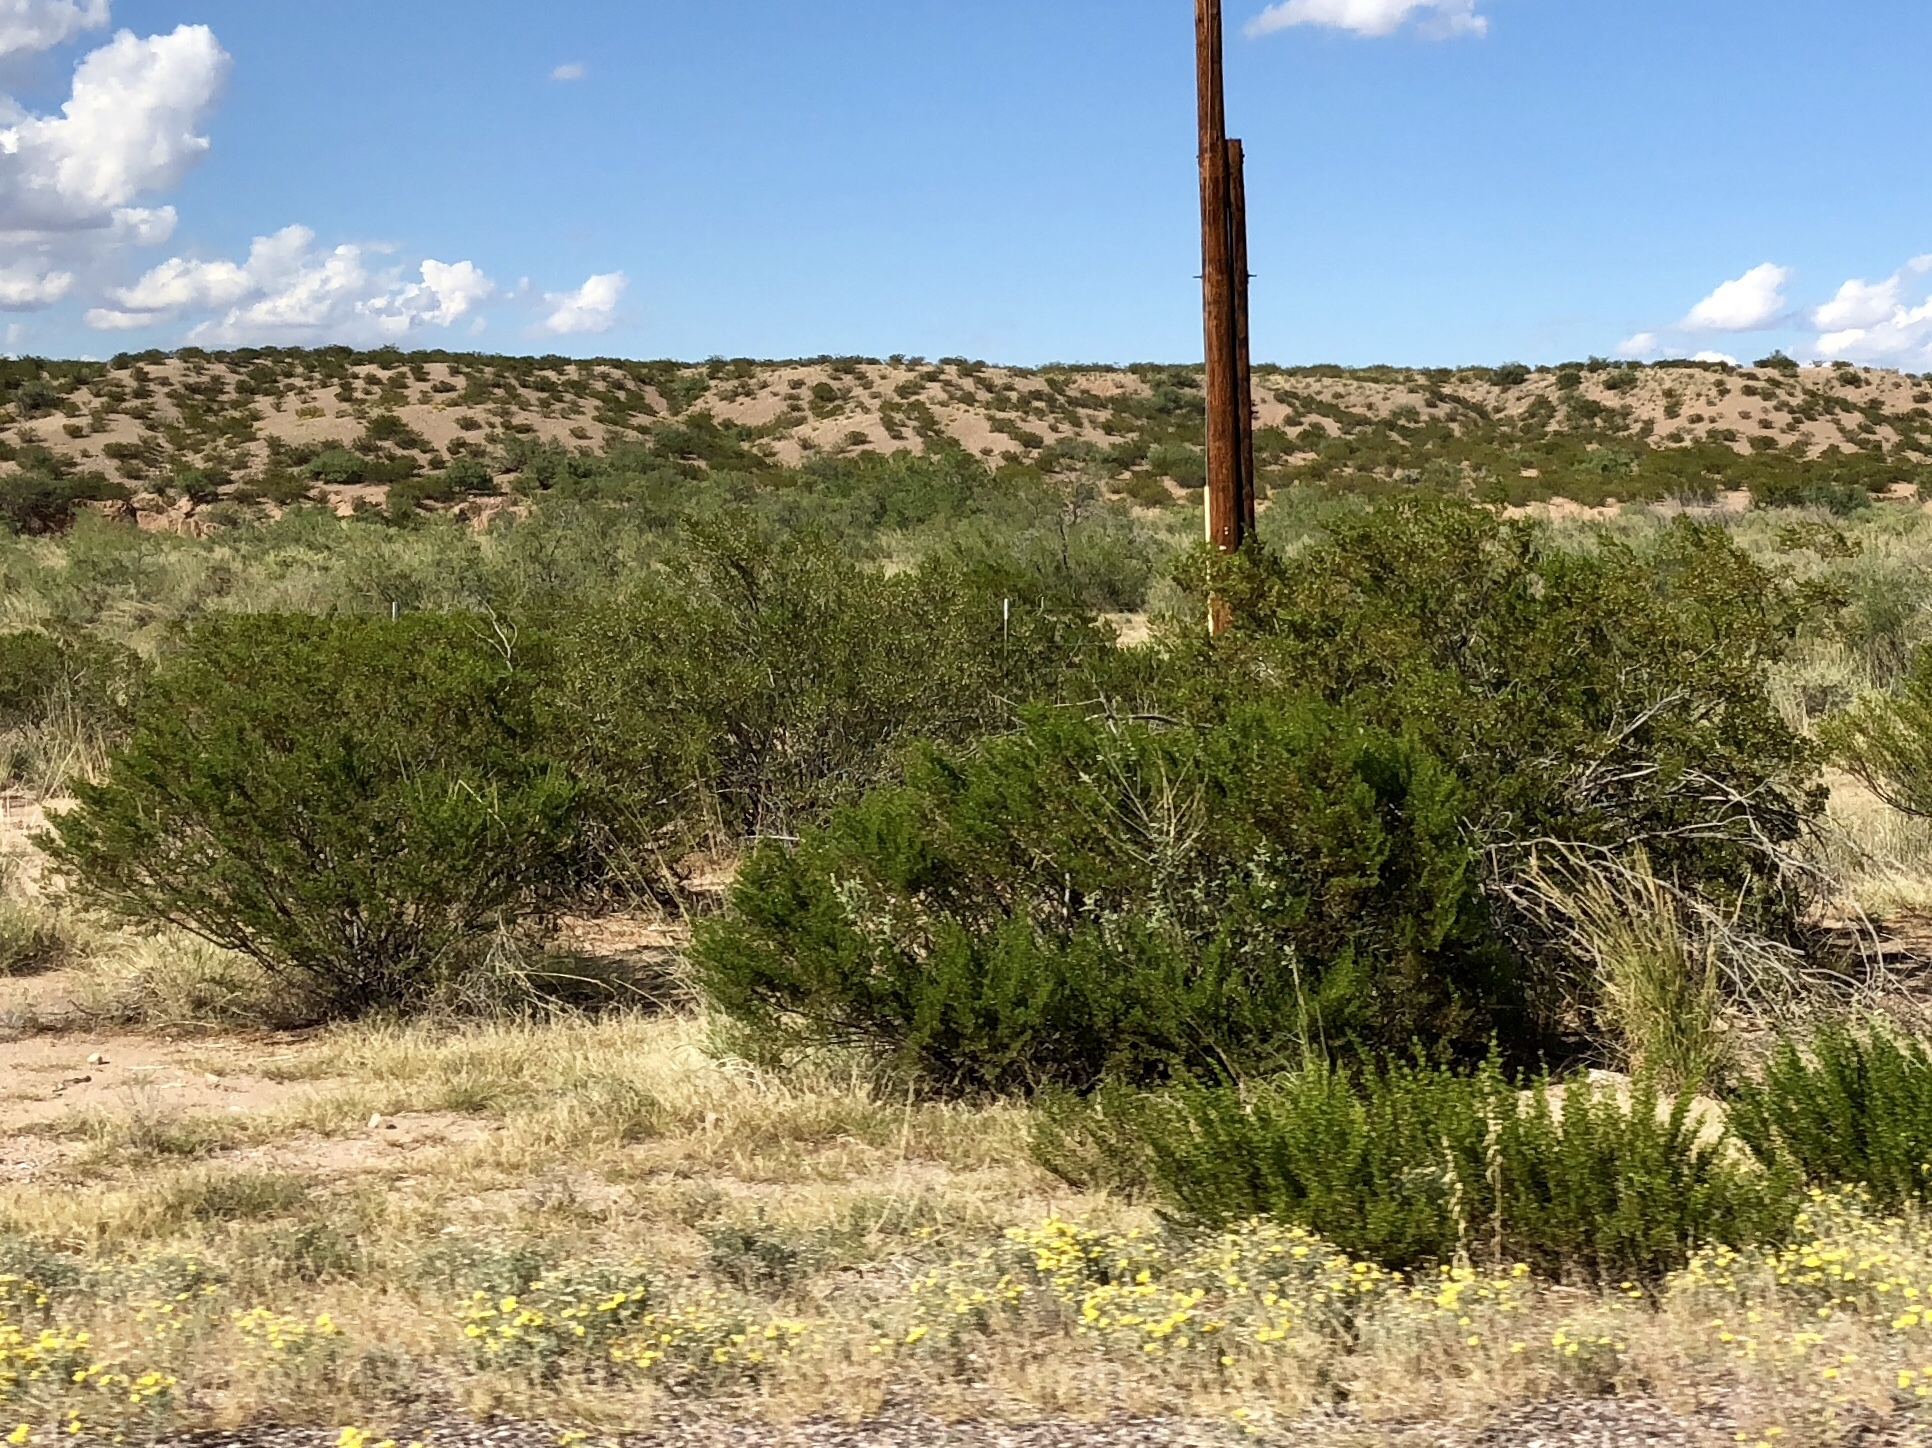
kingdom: Plantae
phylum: Tracheophyta
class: Magnoliopsida
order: Zygophyllales
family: Zygophyllaceae
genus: Larrea
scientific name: Larrea tridentata
